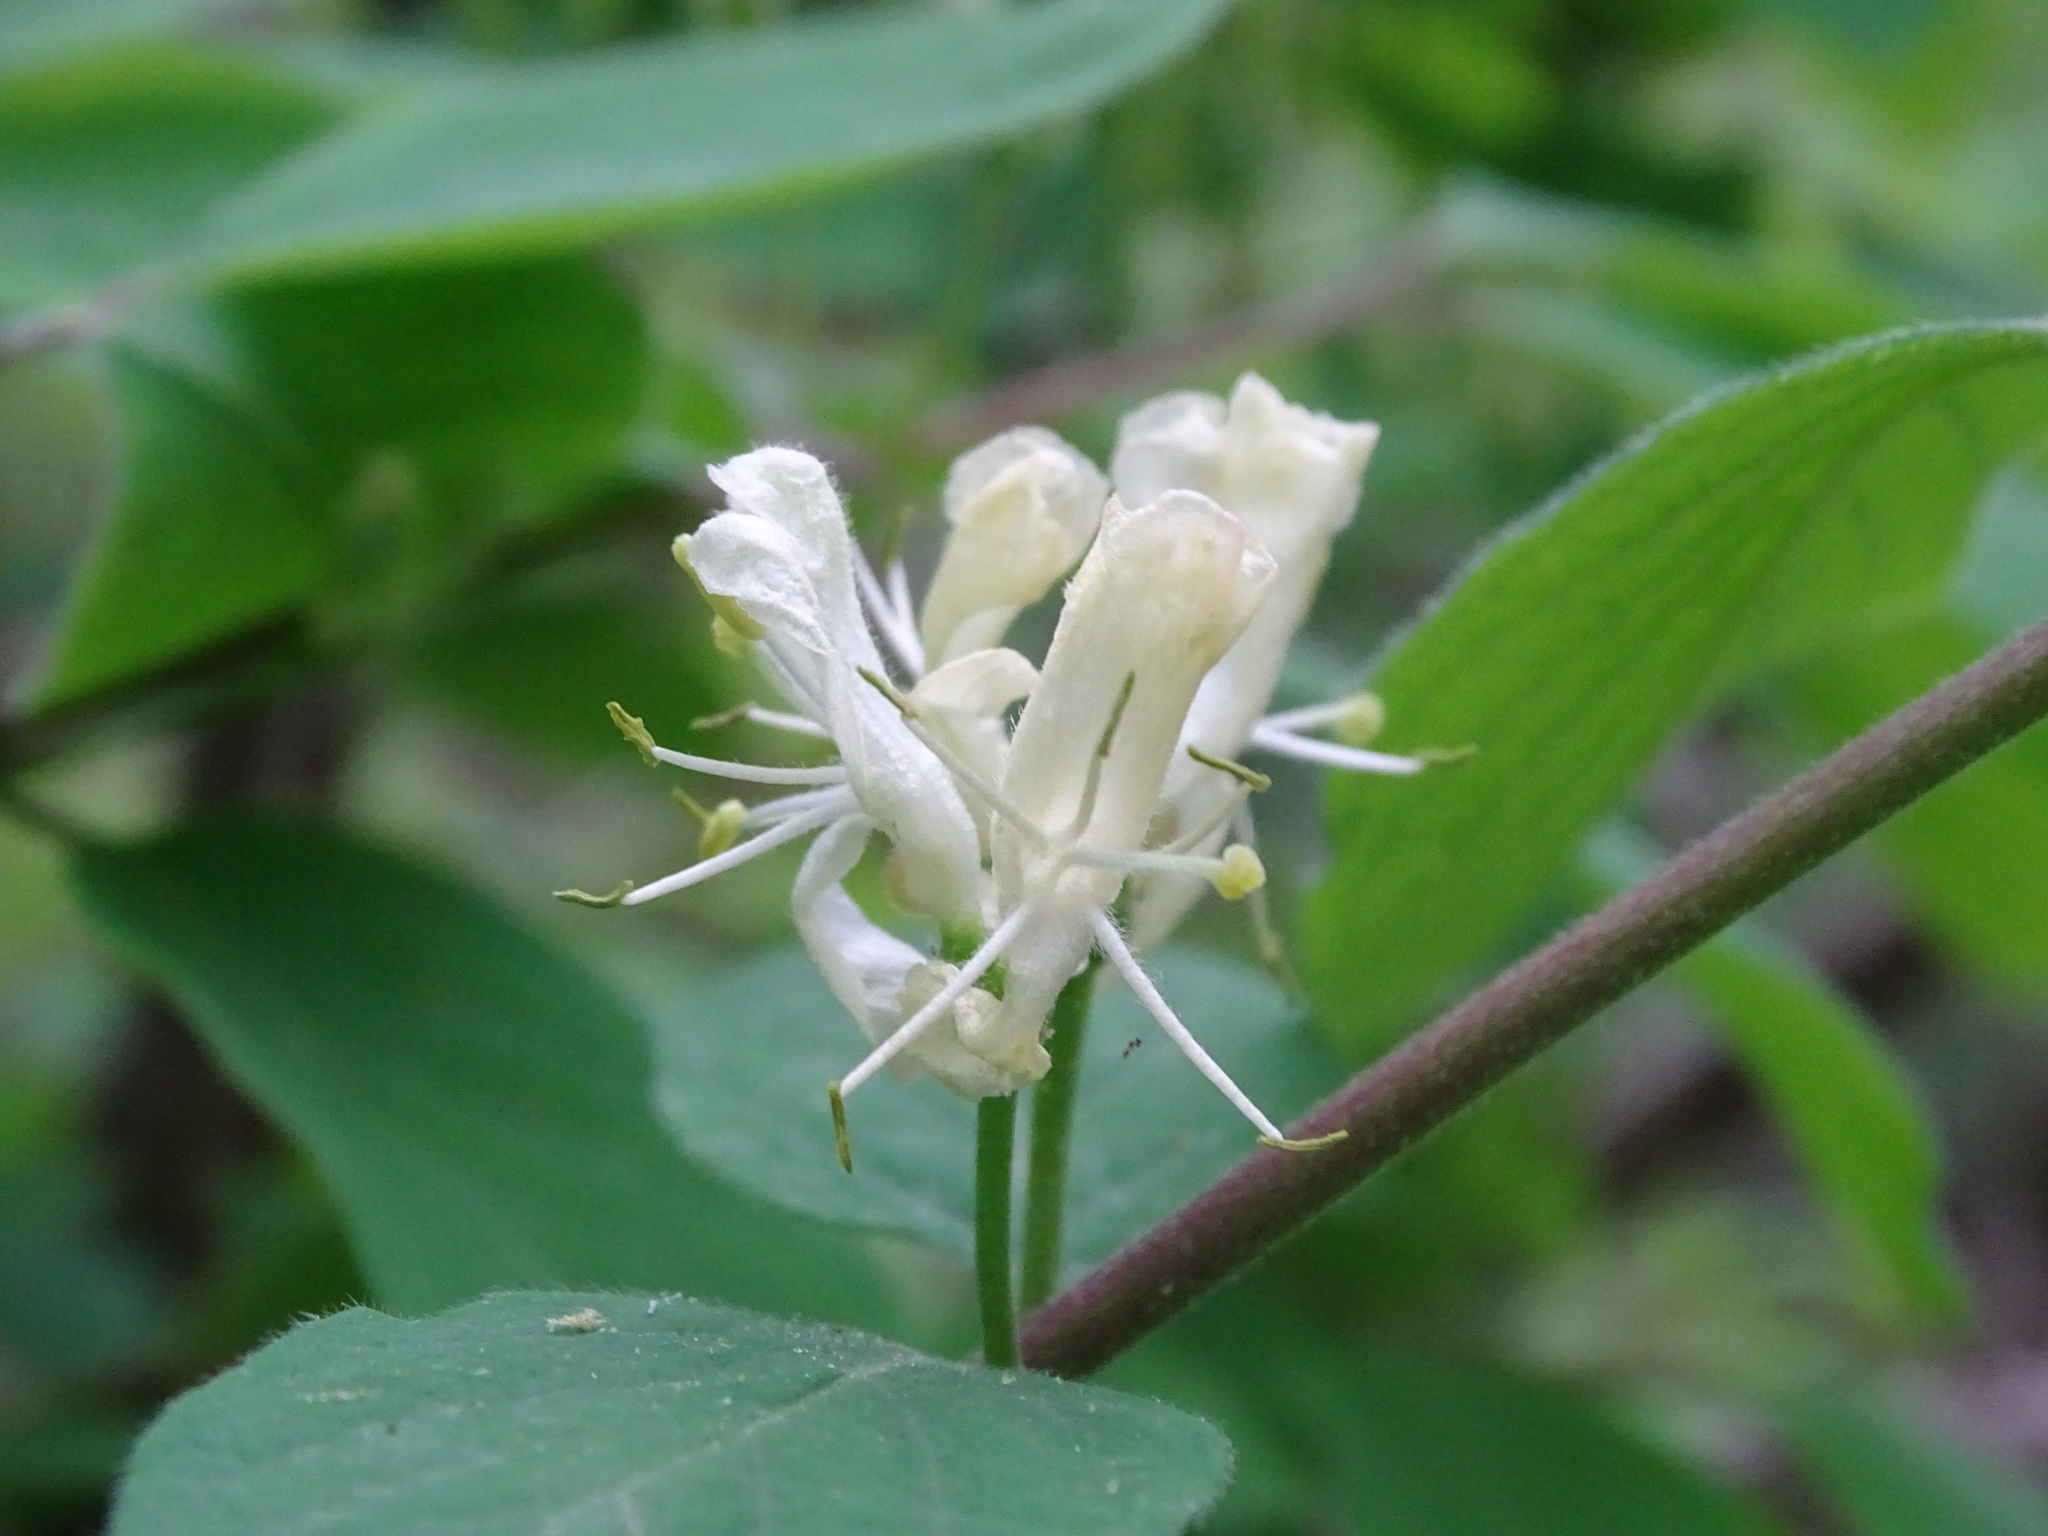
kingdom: Plantae
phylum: Tracheophyta
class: Magnoliopsida
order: Dipsacales
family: Caprifoliaceae
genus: Lonicera
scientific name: Lonicera xylosteum
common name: Fly honeysuckle
